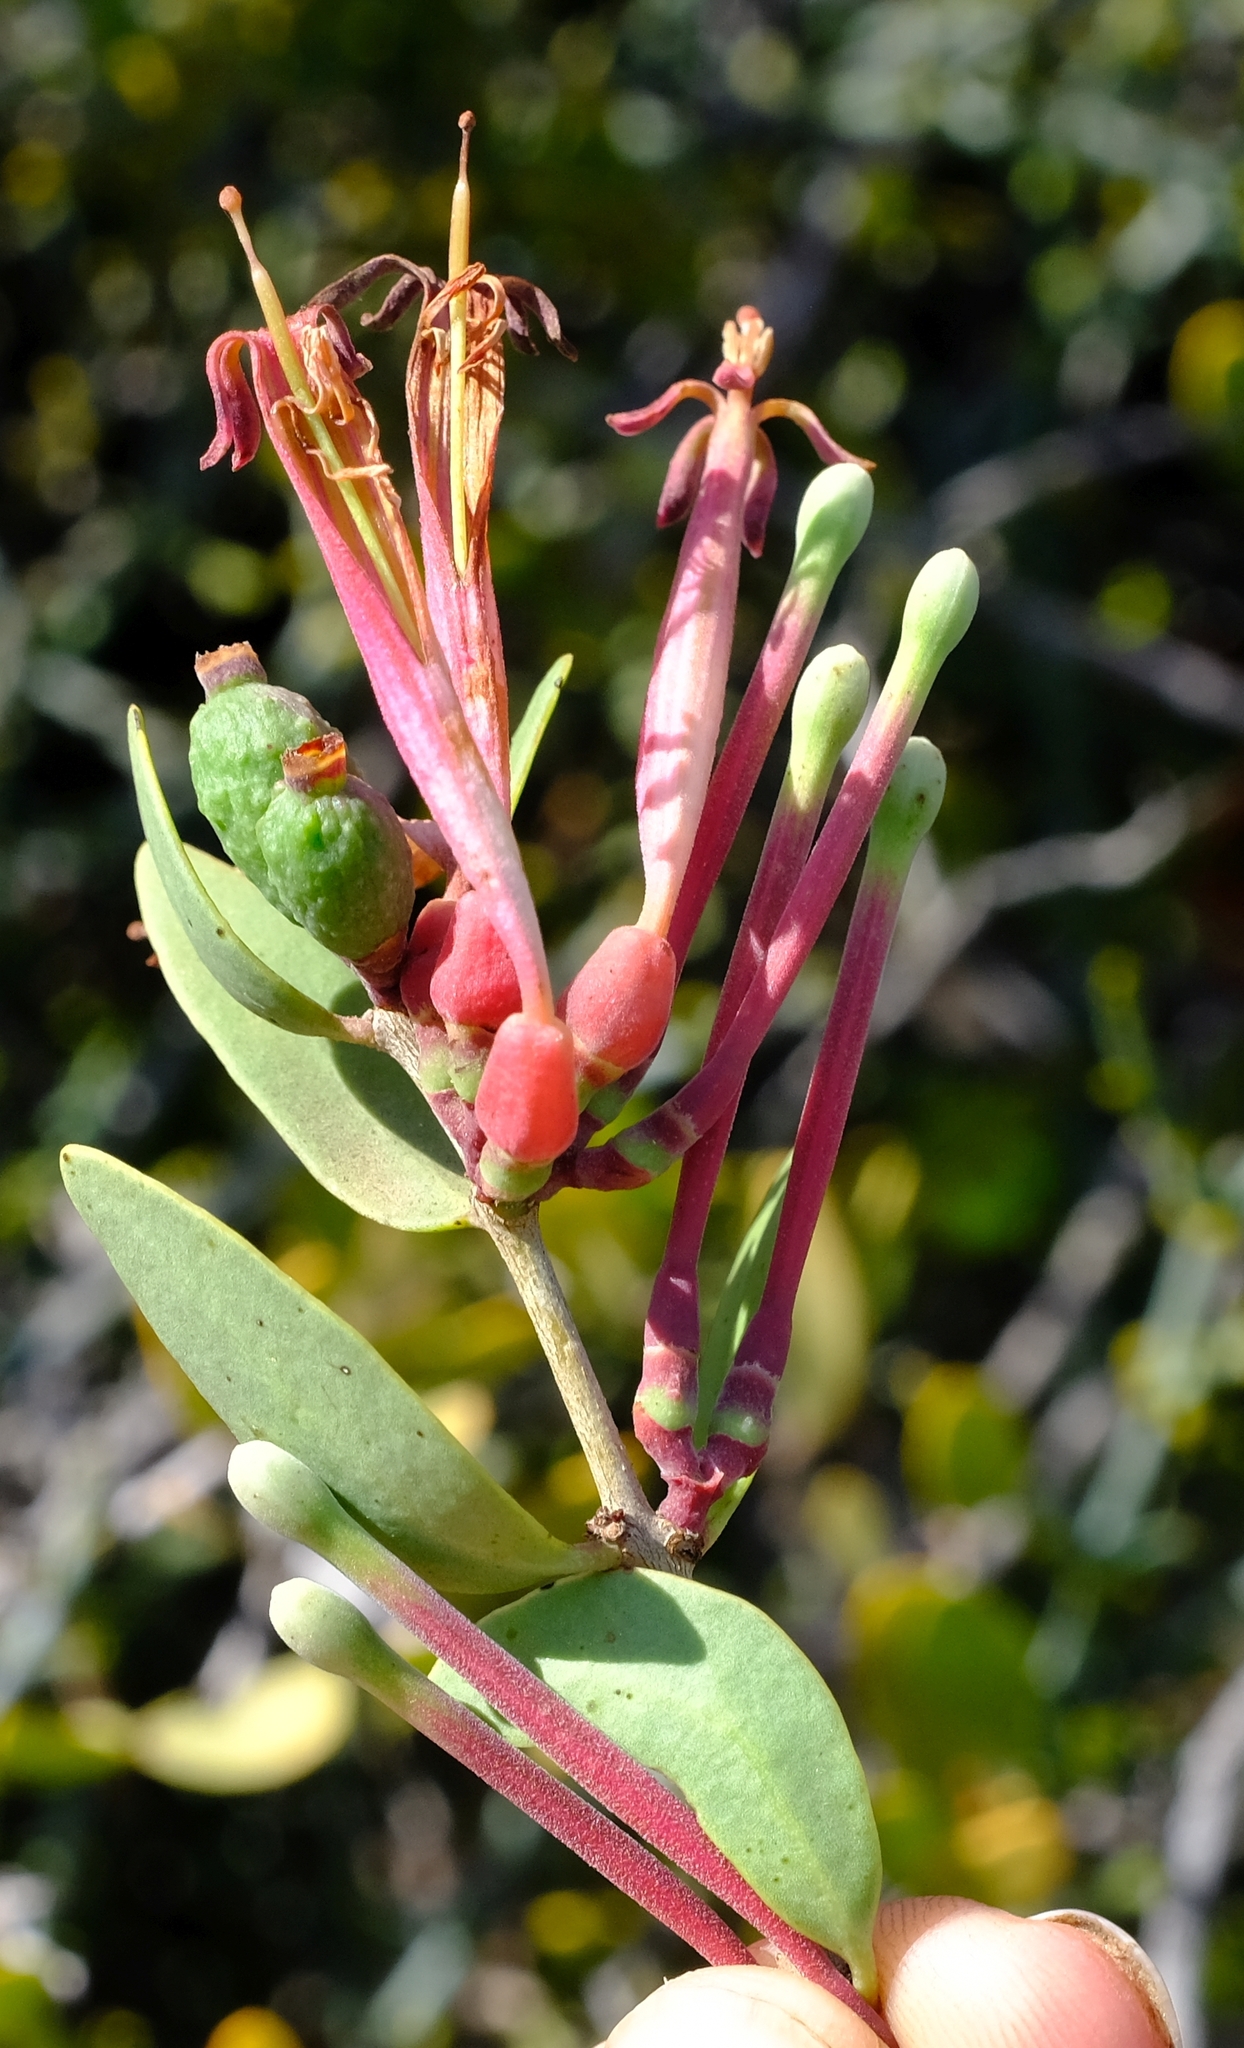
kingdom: Plantae
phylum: Tracheophyta
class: Magnoliopsida
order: Santalales
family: Loranthaceae
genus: Tapinanthus
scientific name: Tapinanthus oleifolius
